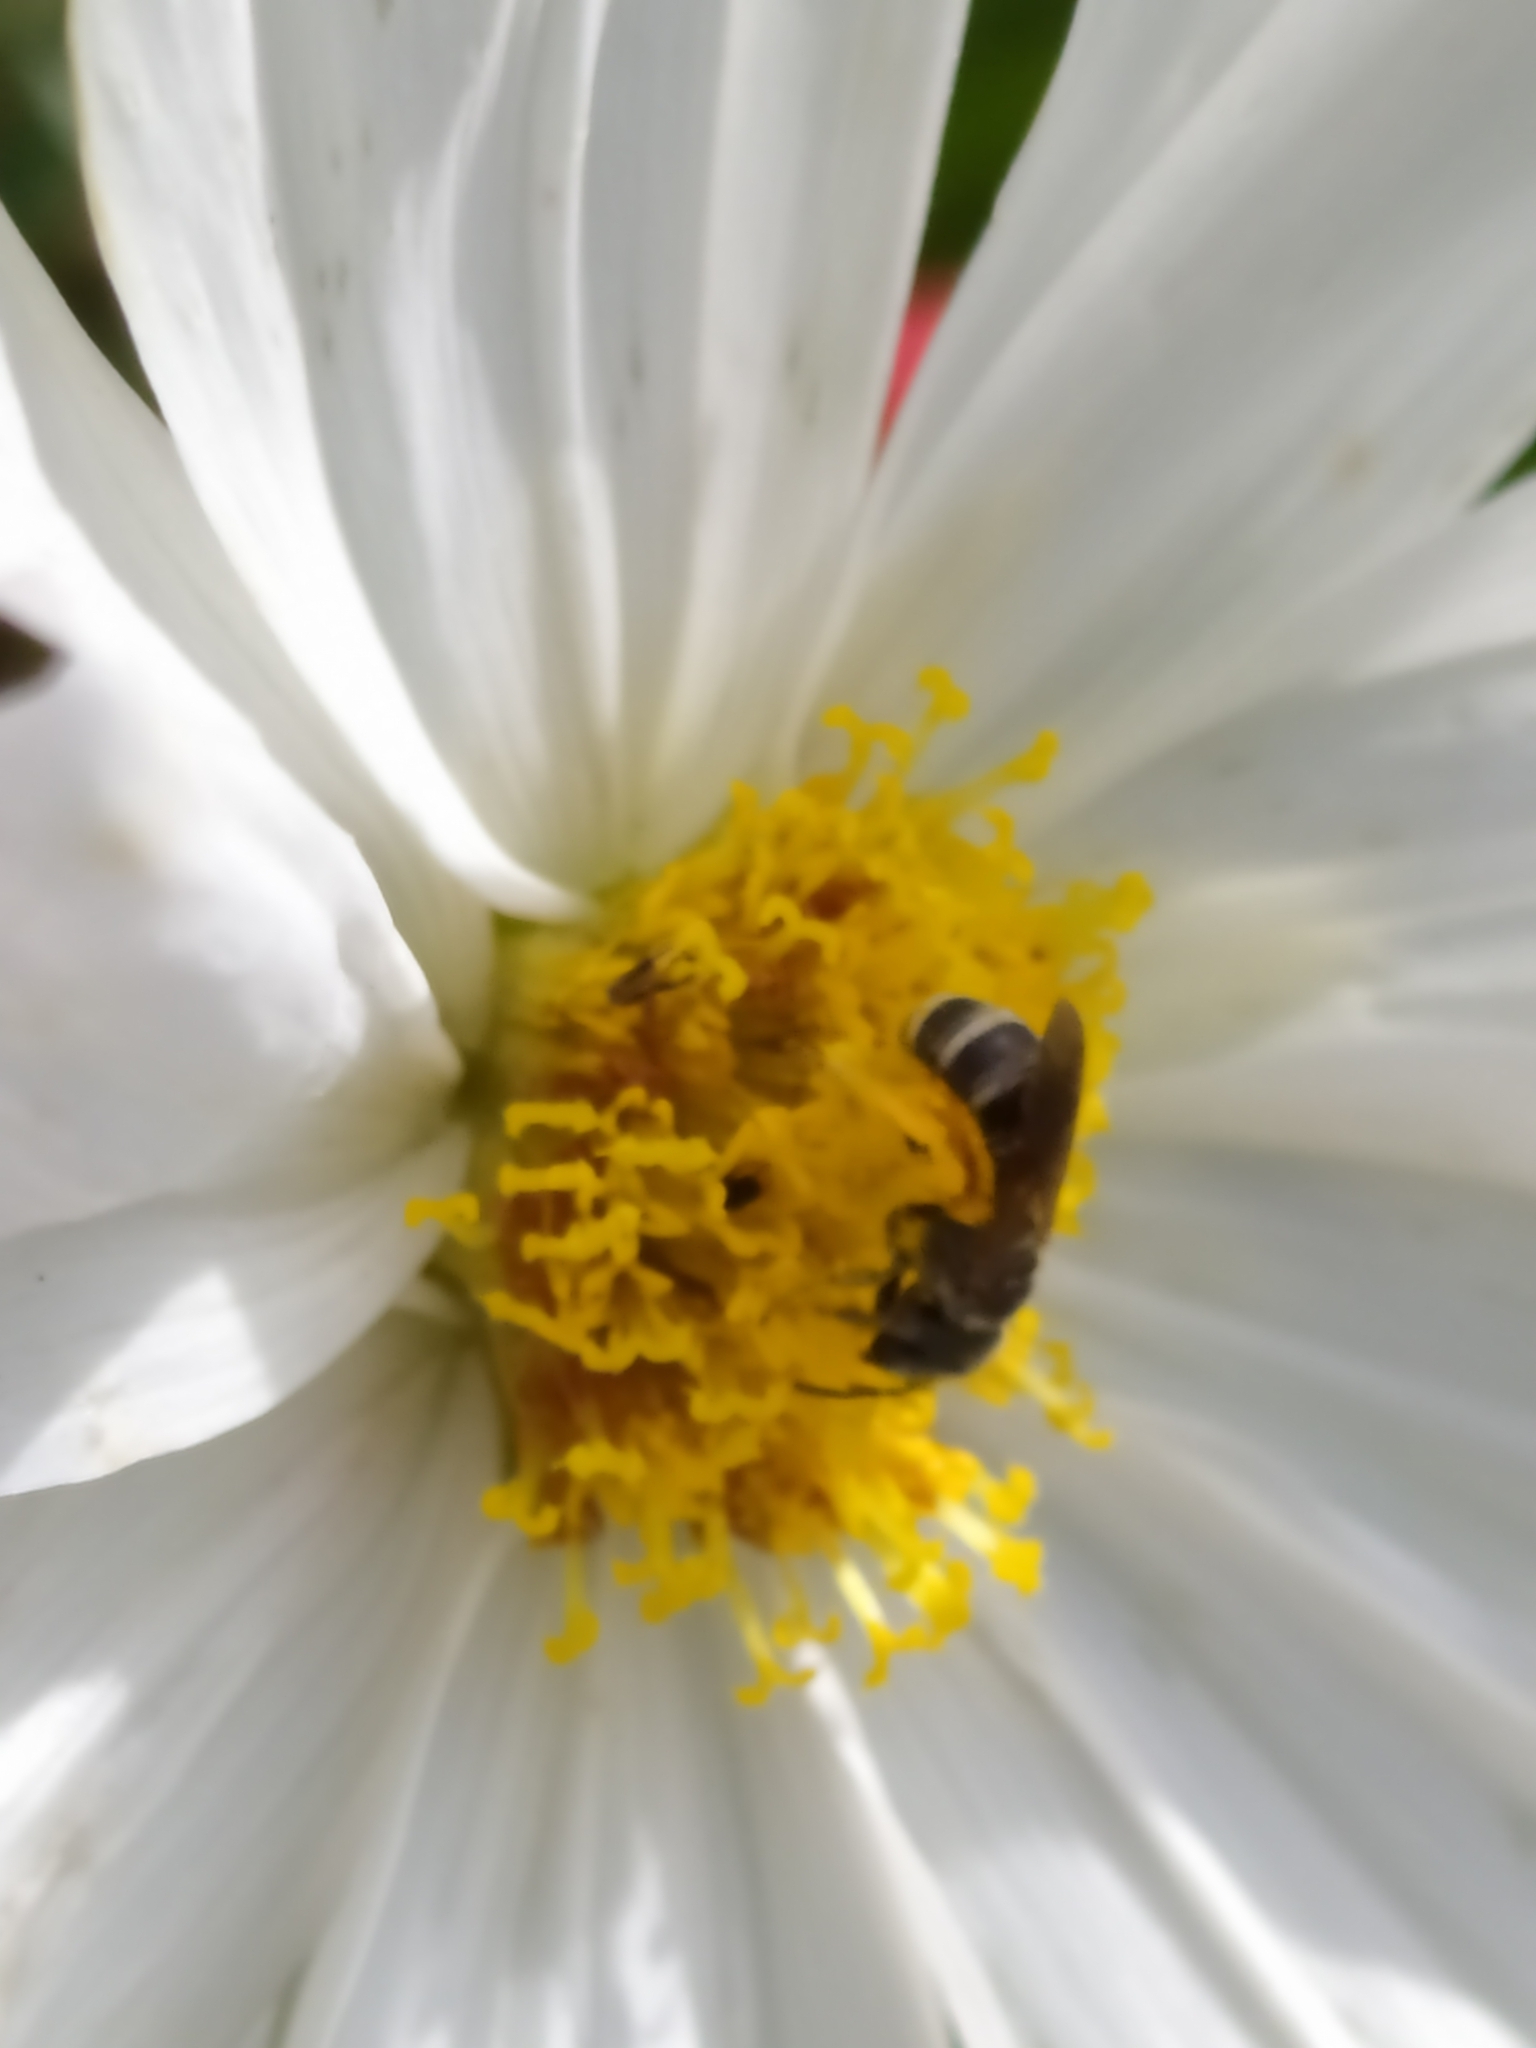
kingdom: Animalia
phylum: Arthropoda
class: Insecta
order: Hymenoptera
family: Halictidae
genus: Halictus
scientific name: Halictus ligatus
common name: Ligated furrow bee
